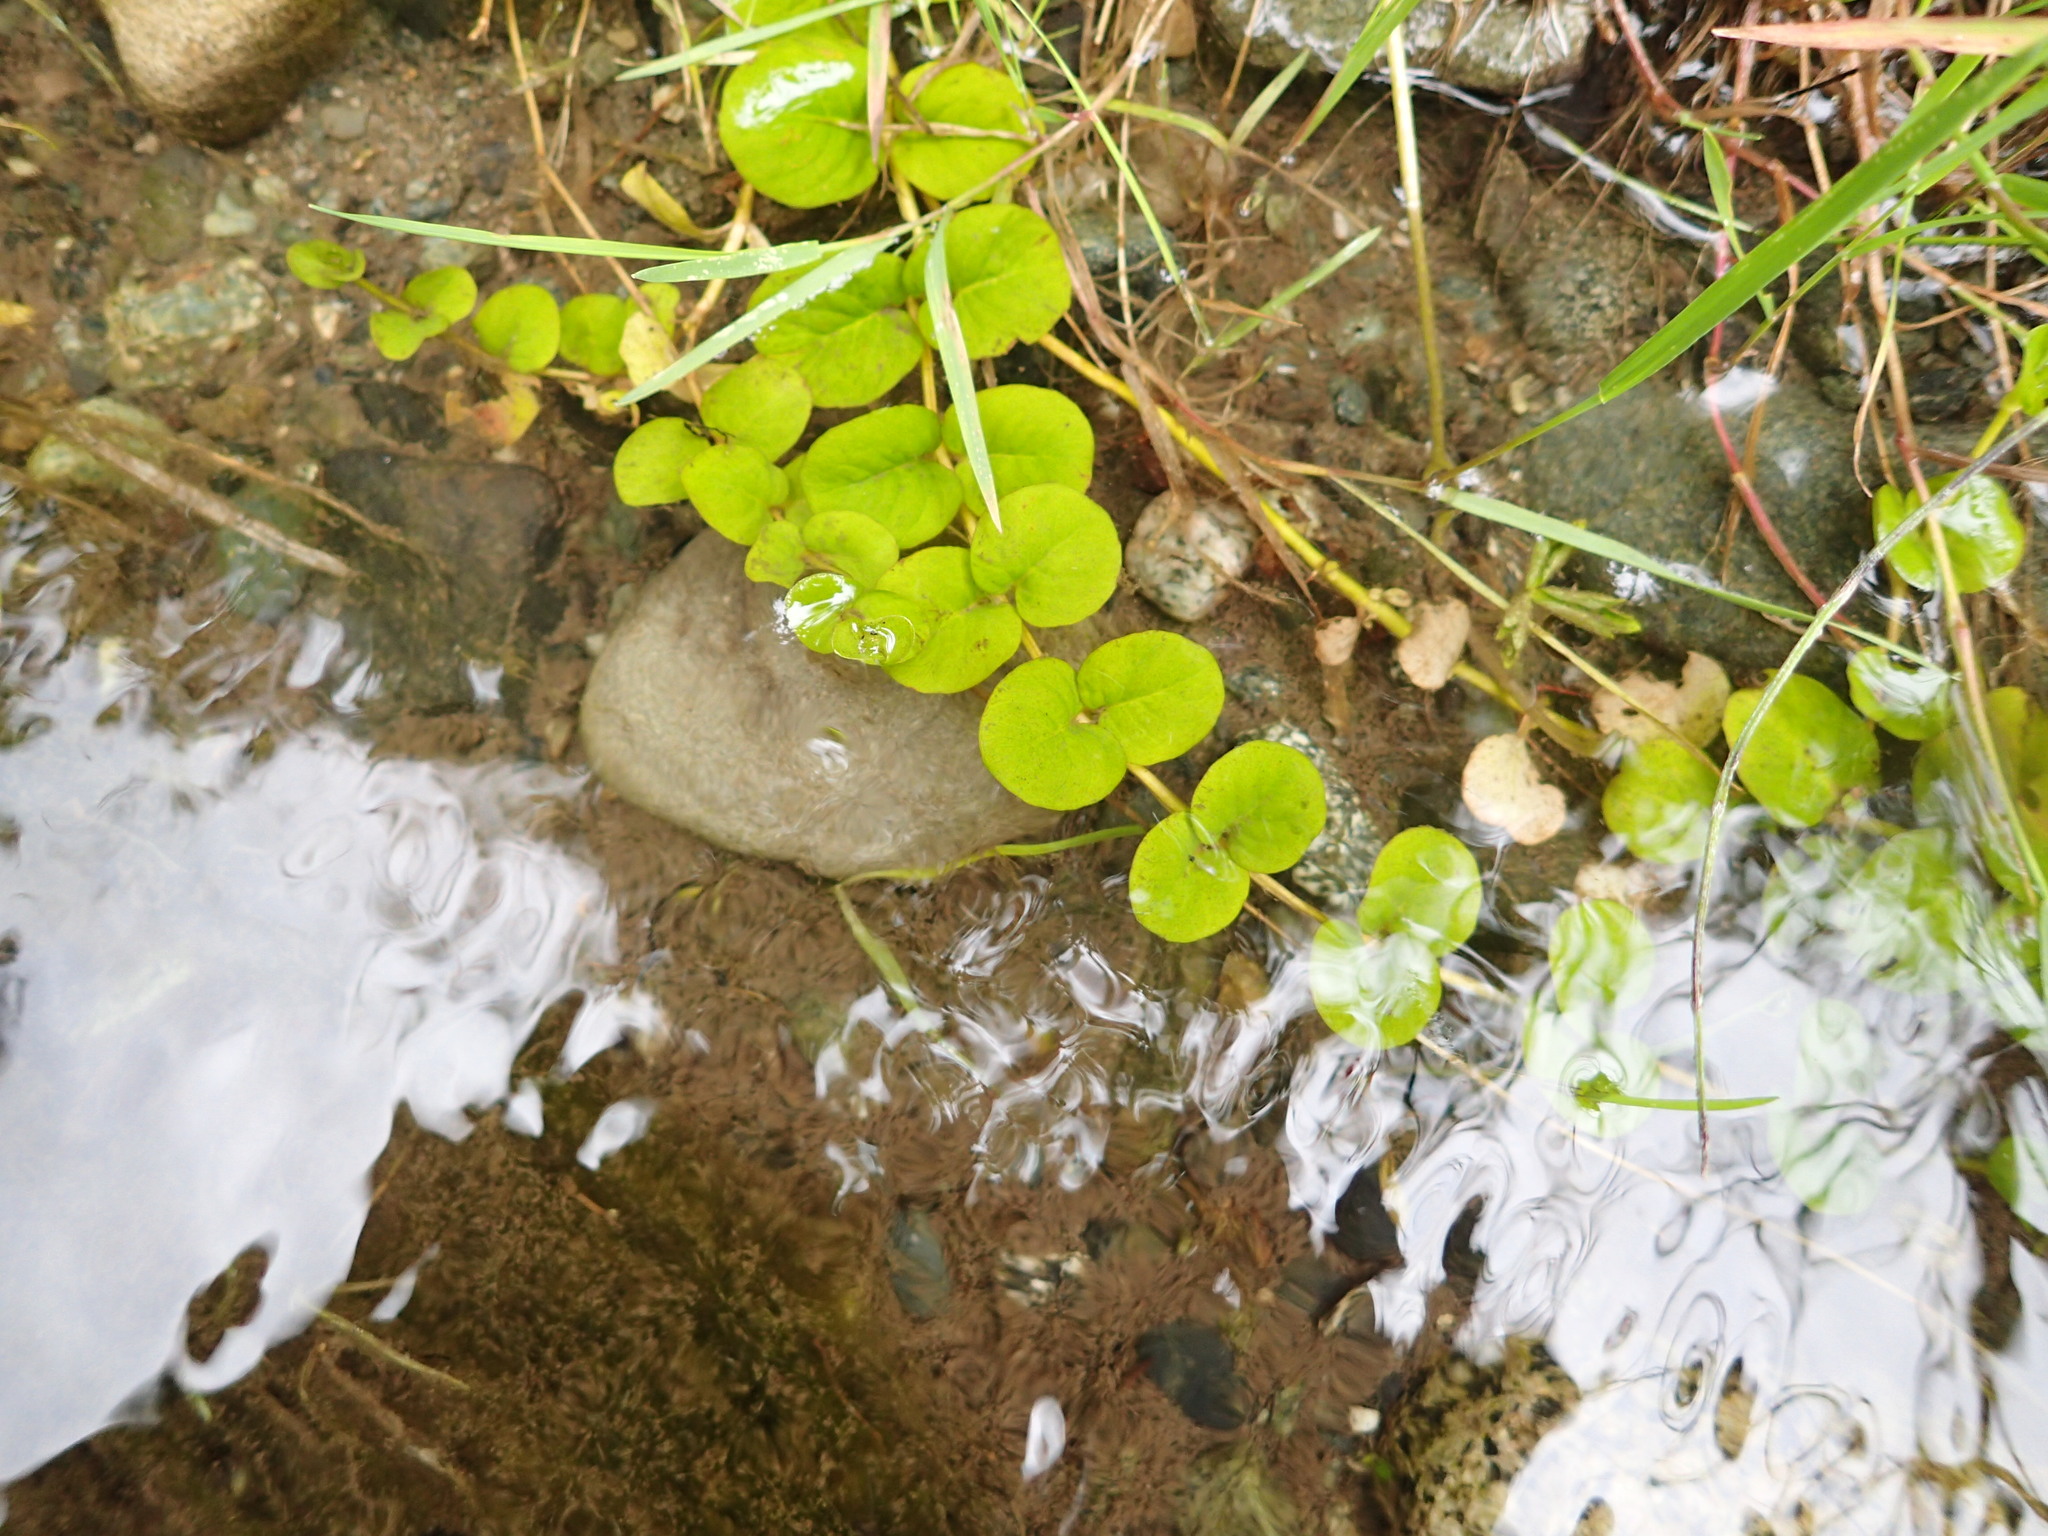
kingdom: Plantae
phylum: Tracheophyta
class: Magnoliopsida
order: Ericales
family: Primulaceae
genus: Lysimachia
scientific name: Lysimachia nummularia
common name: Moneywort
